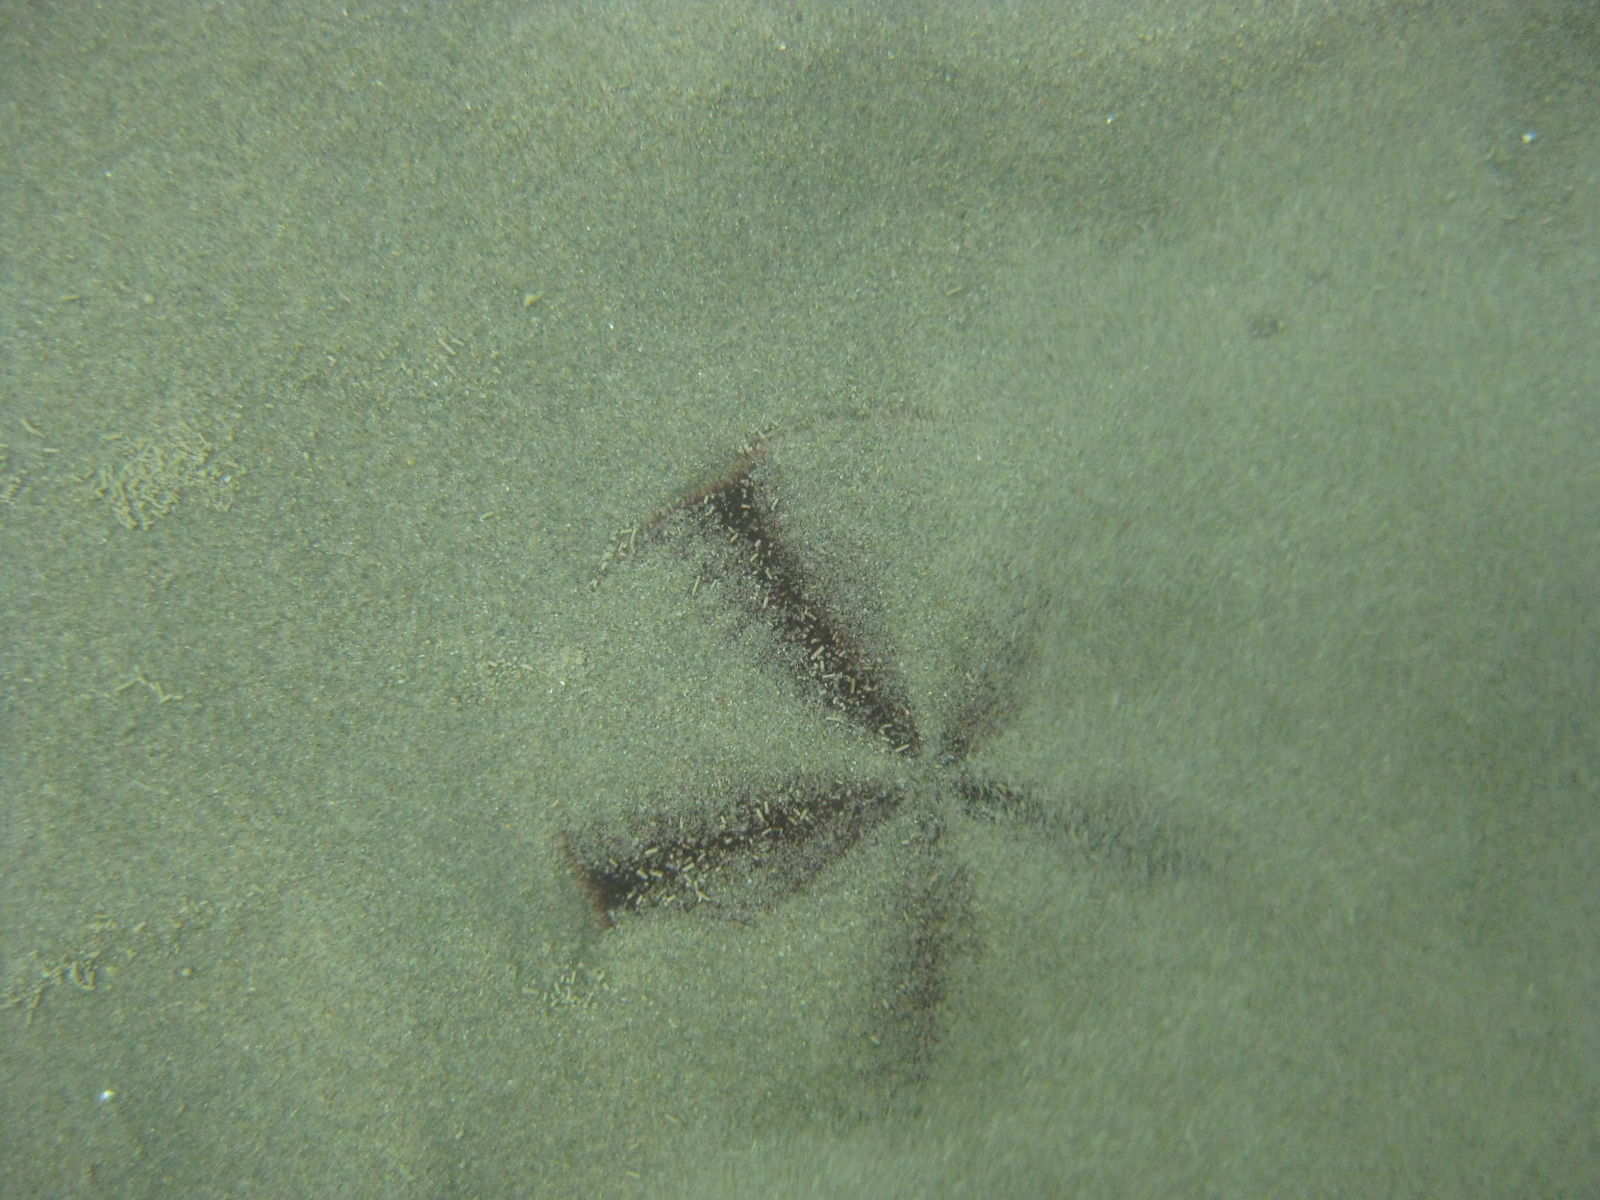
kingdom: Animalia
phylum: Echinodermata
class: Echinoidea
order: Clypeasteroida
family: Clypeasteridae
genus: Fellaster
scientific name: Fellaster zelandiae
